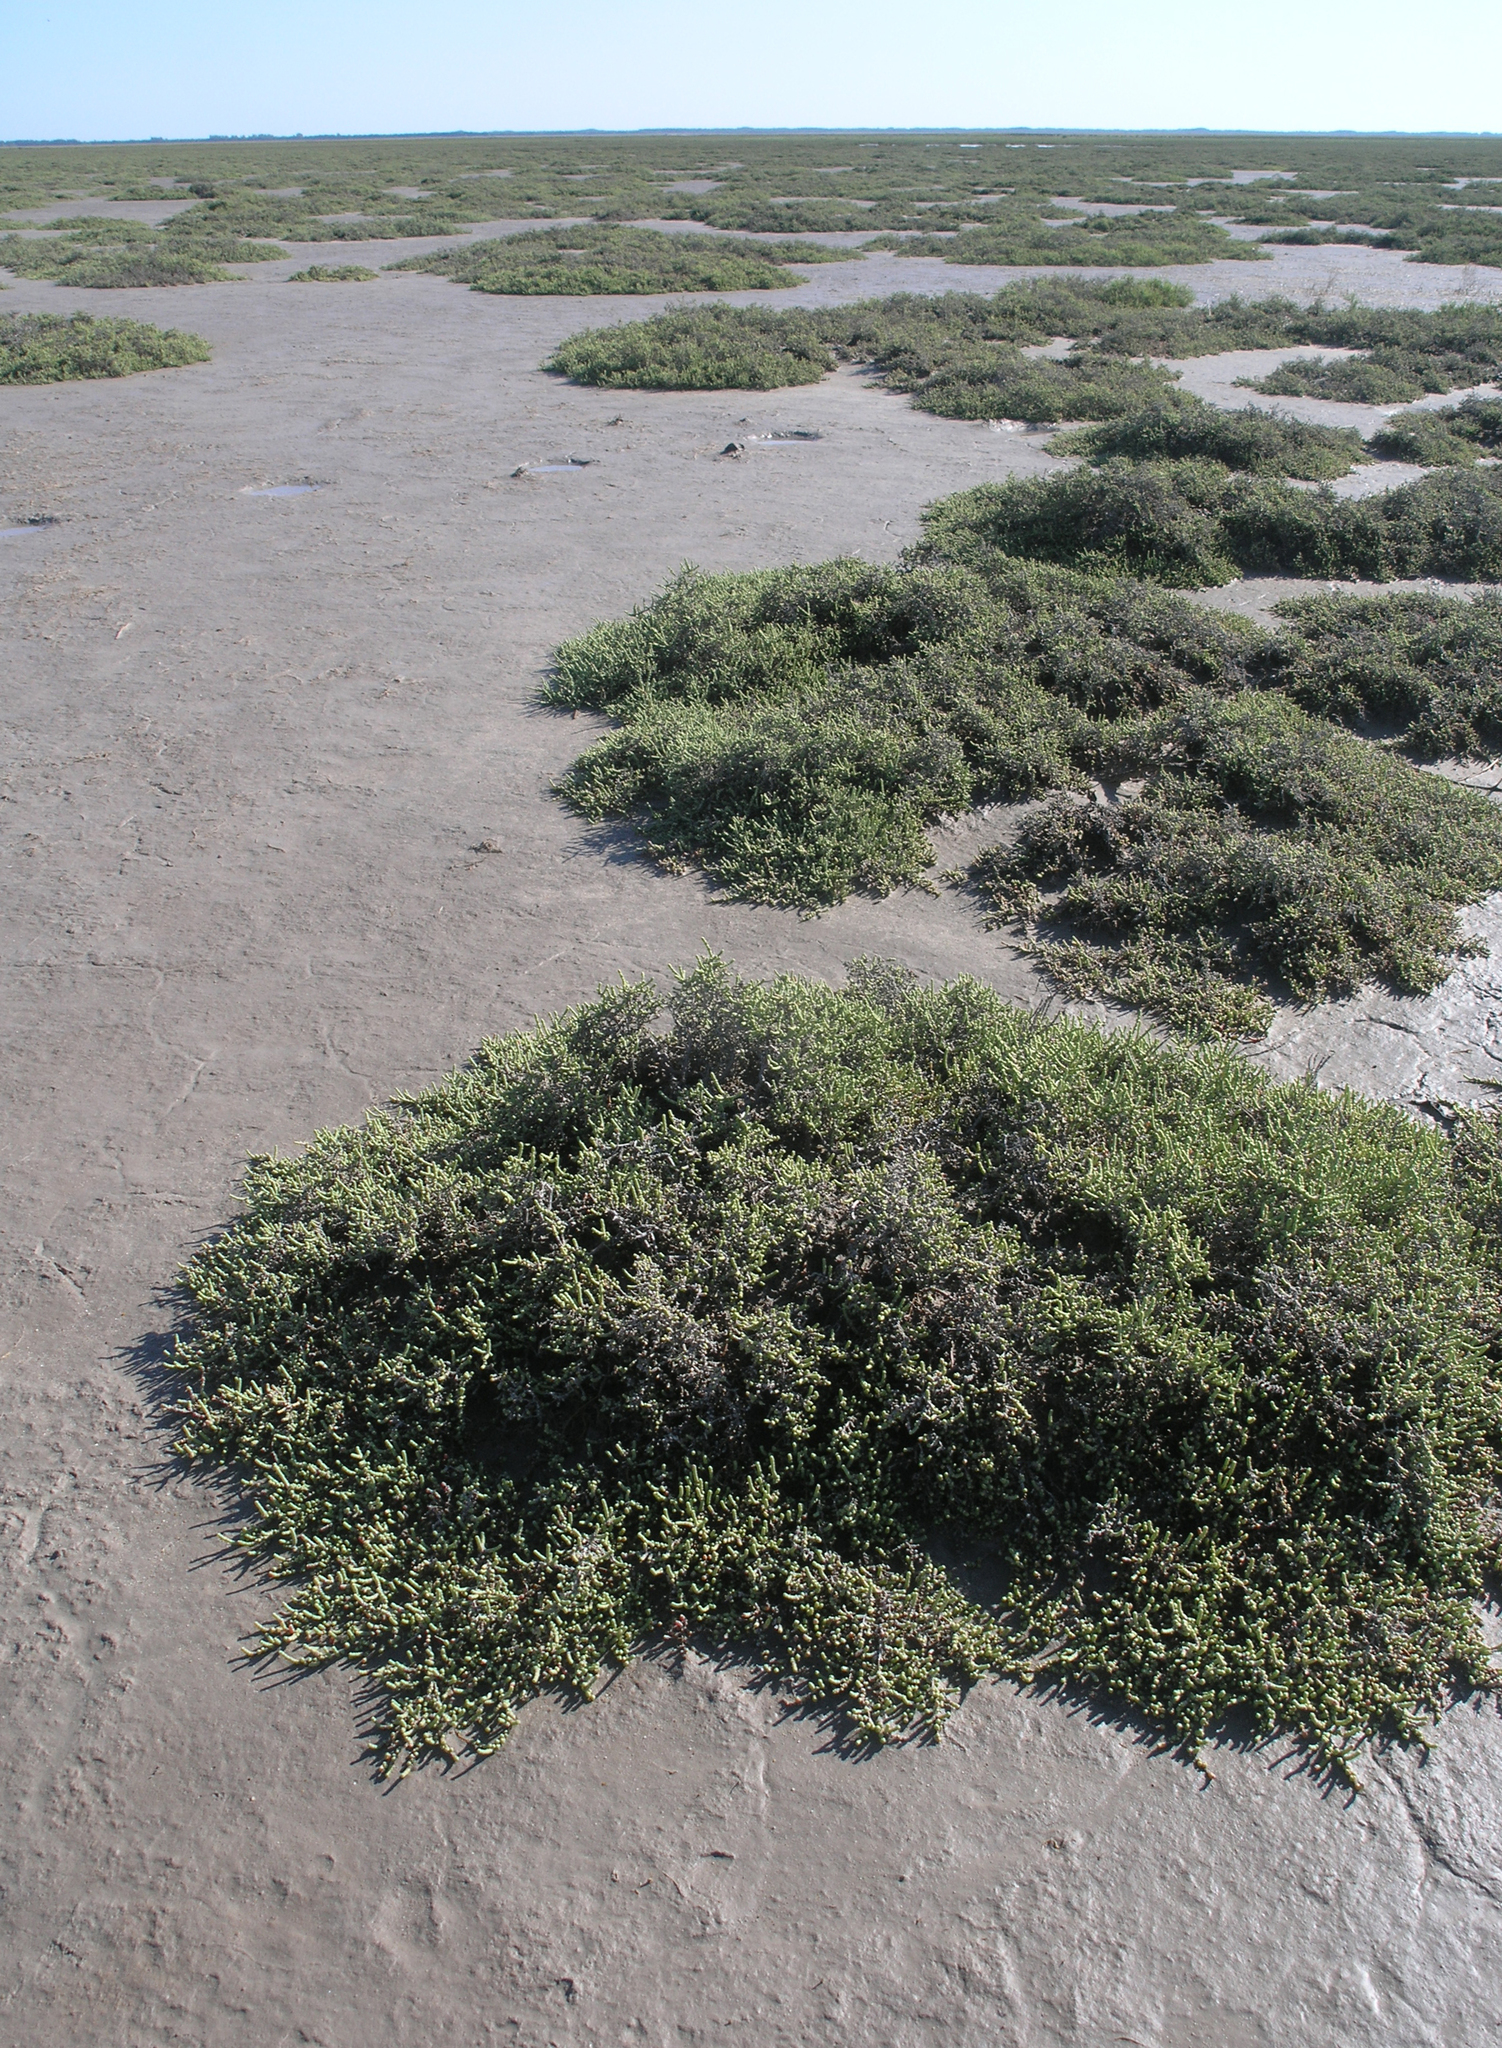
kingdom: Plantae
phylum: Tracheophyta
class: Magnoliopsida
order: Caryophyllales
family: Amaranthaceae
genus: Halocnemum
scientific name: Halocnemum strobilaceum
